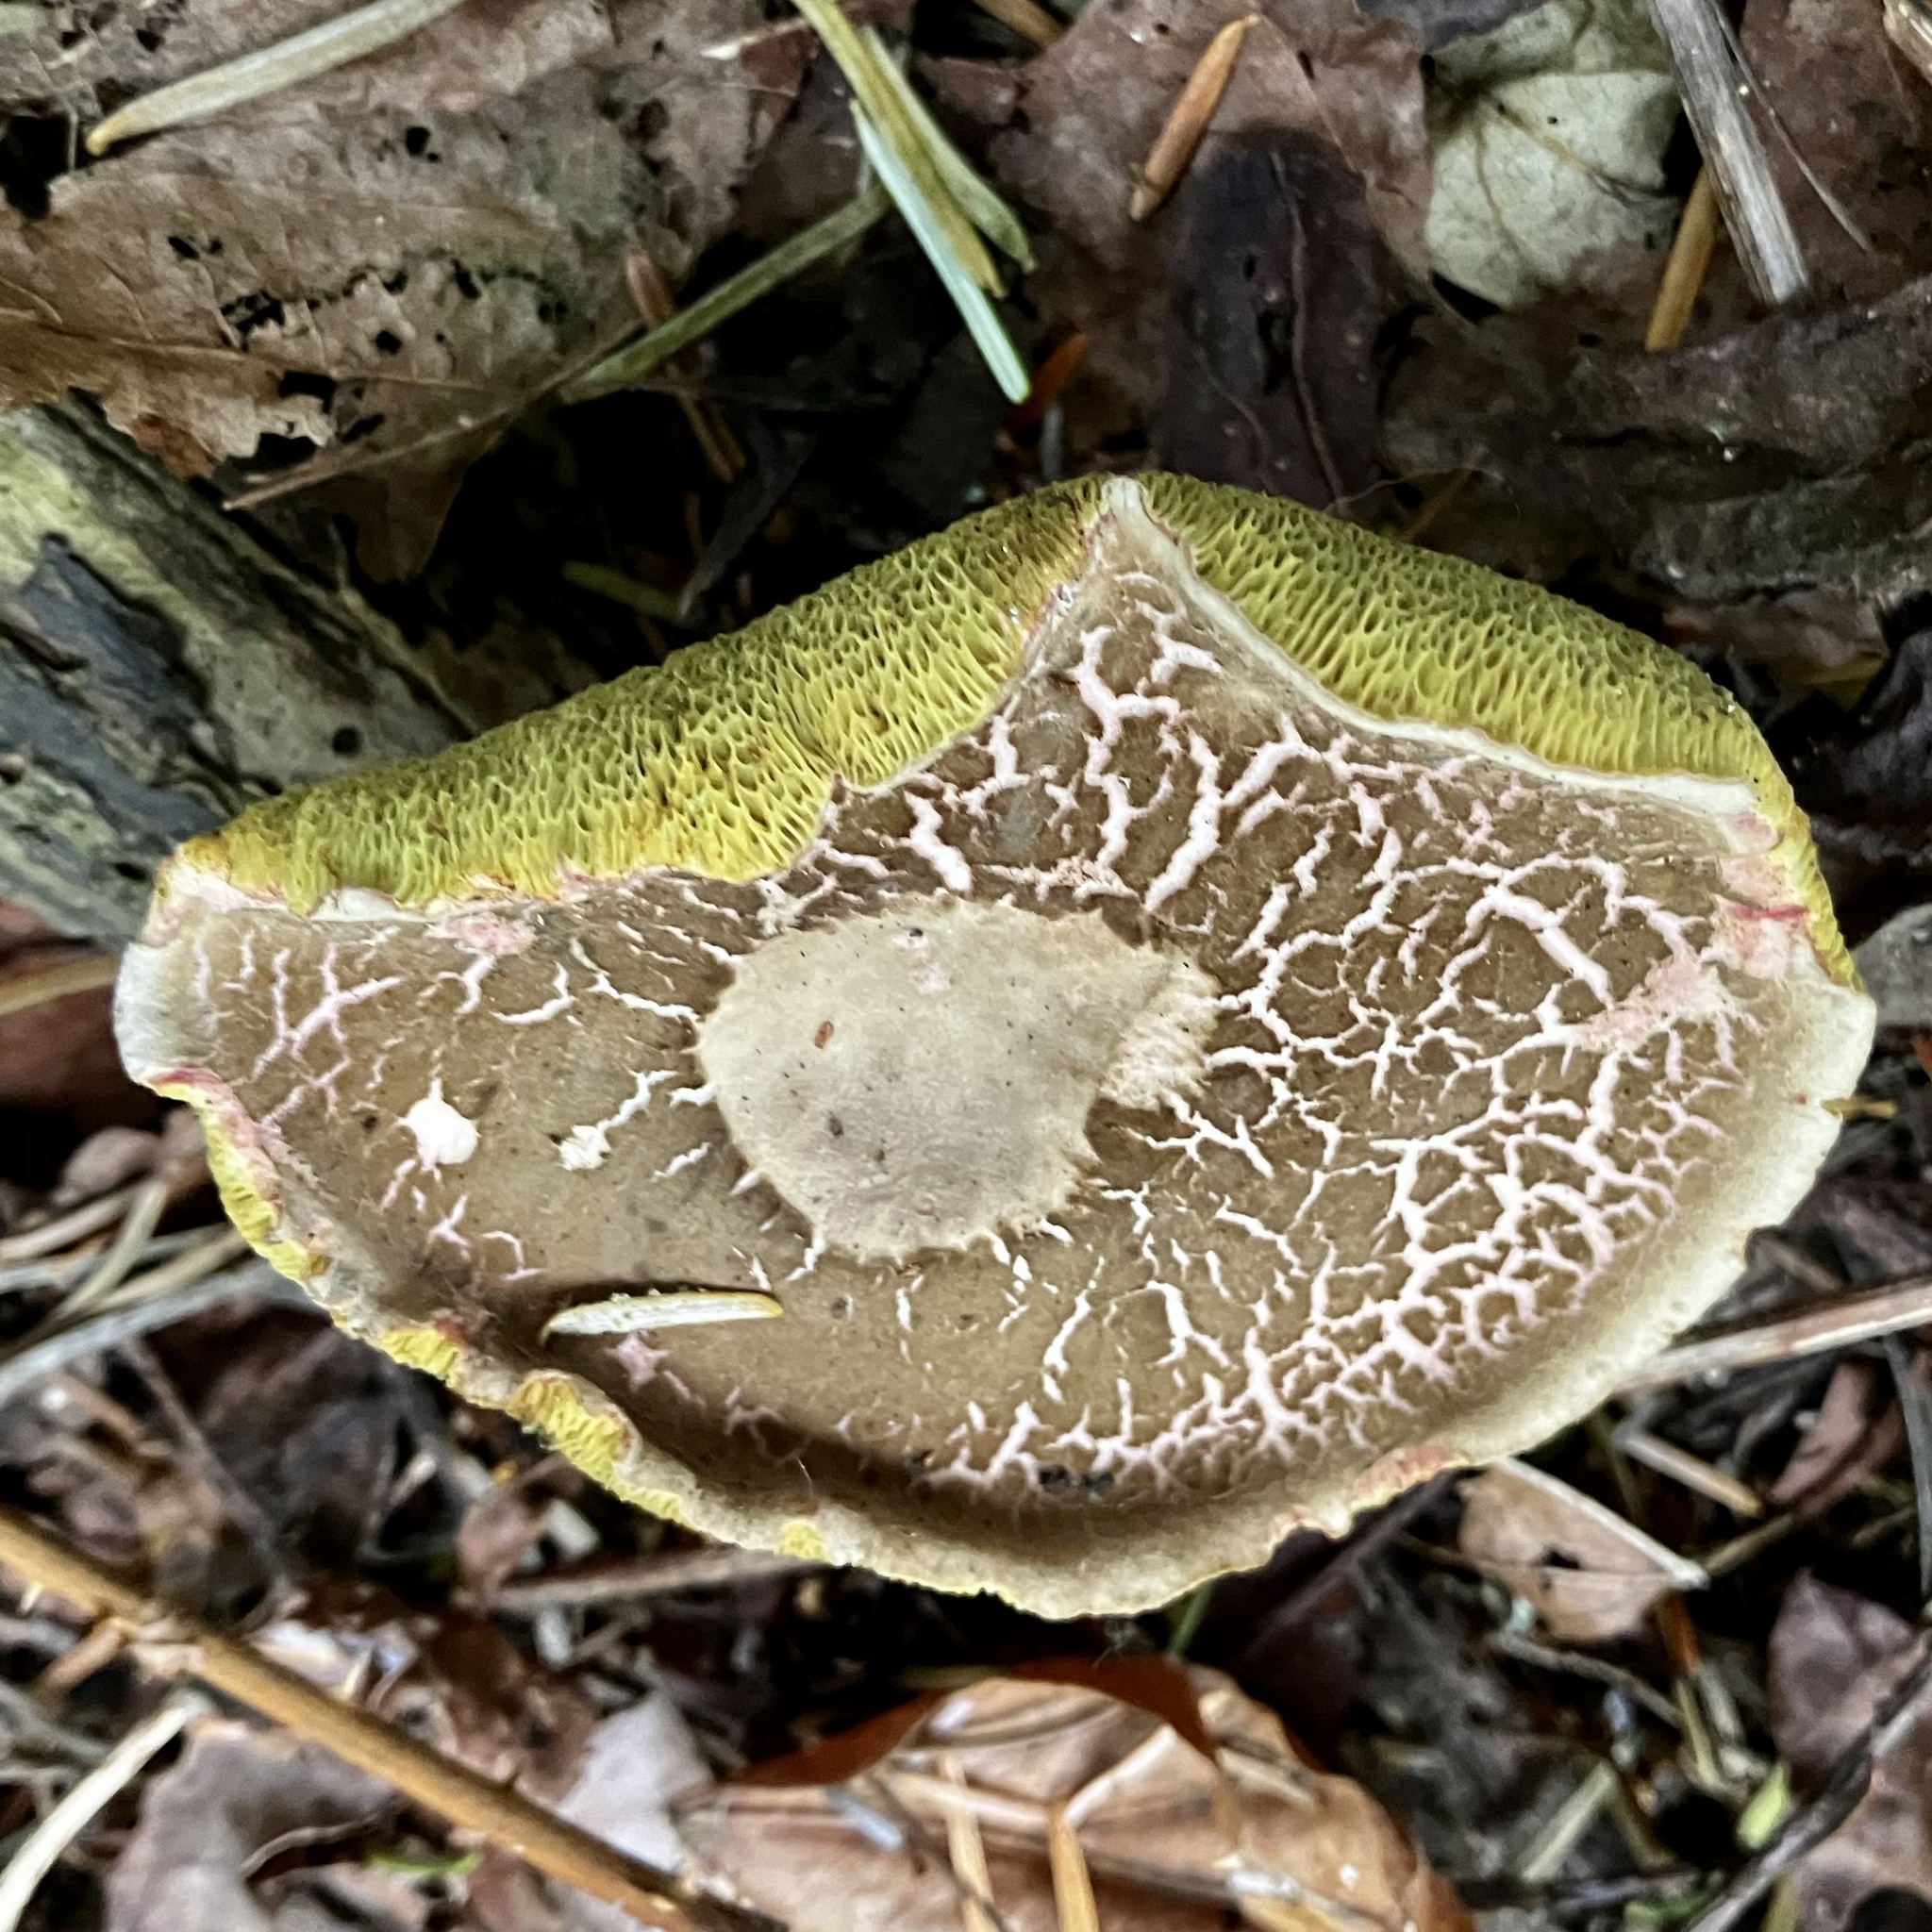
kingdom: Fungi
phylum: Basidiomycota
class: Agaricomycetes
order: Boletales
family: Boletaceae
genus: Xerocomellus
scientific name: Xerocomellus diffractus
